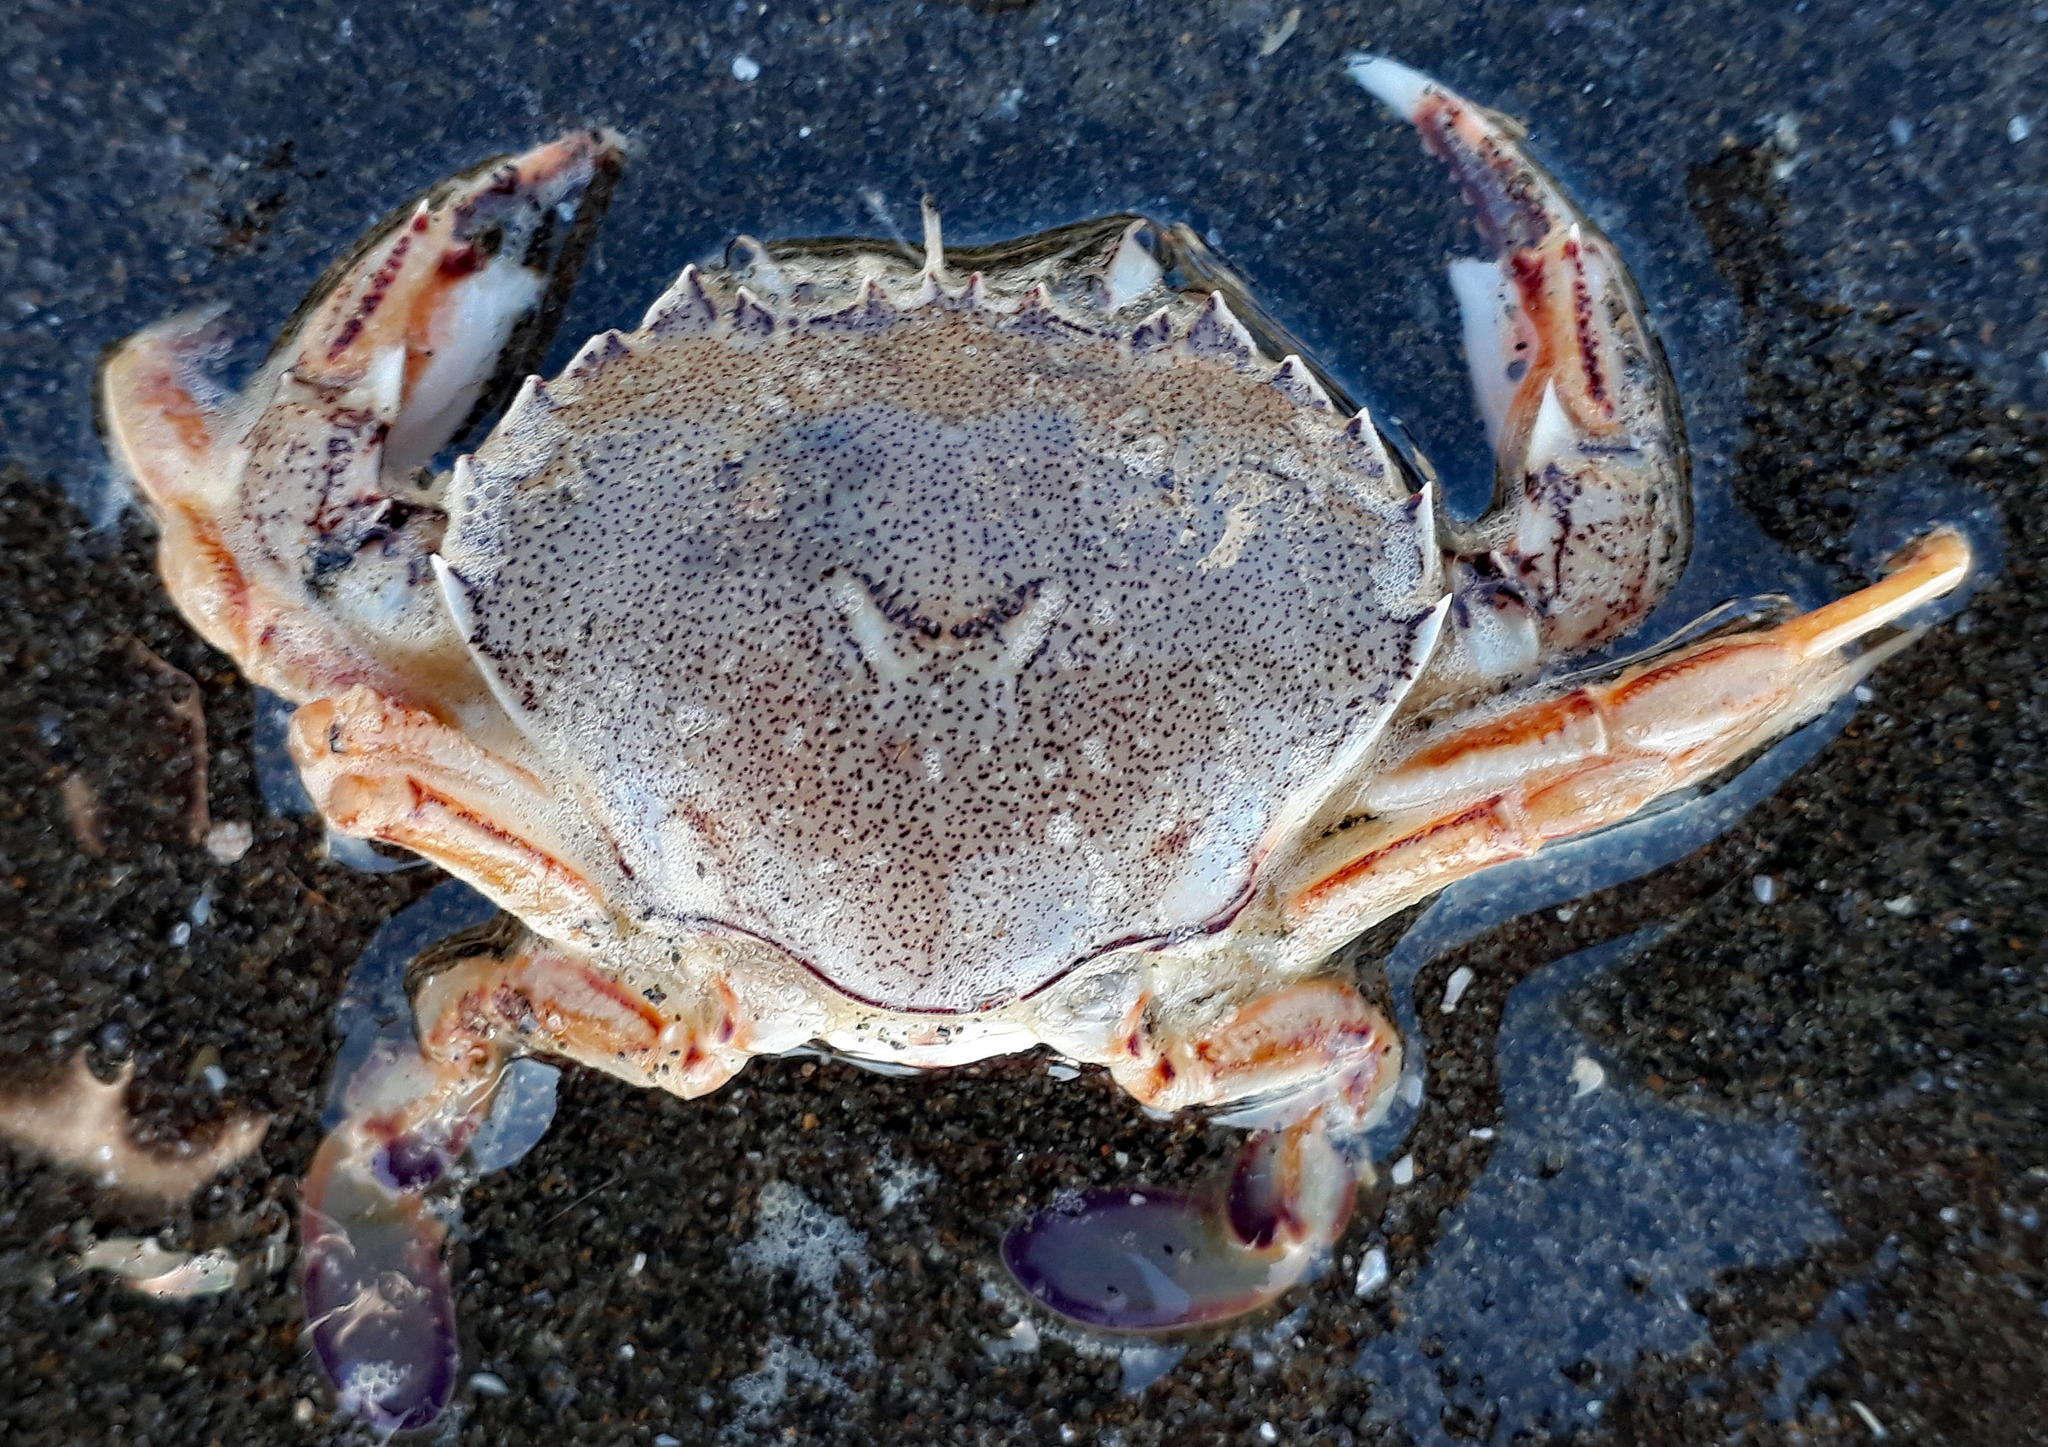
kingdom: Animalia
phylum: Arthropoda
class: Malacostraca
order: Decapoda
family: Ovalipidae
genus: Ovalipes
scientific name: Ovalipes catharus
